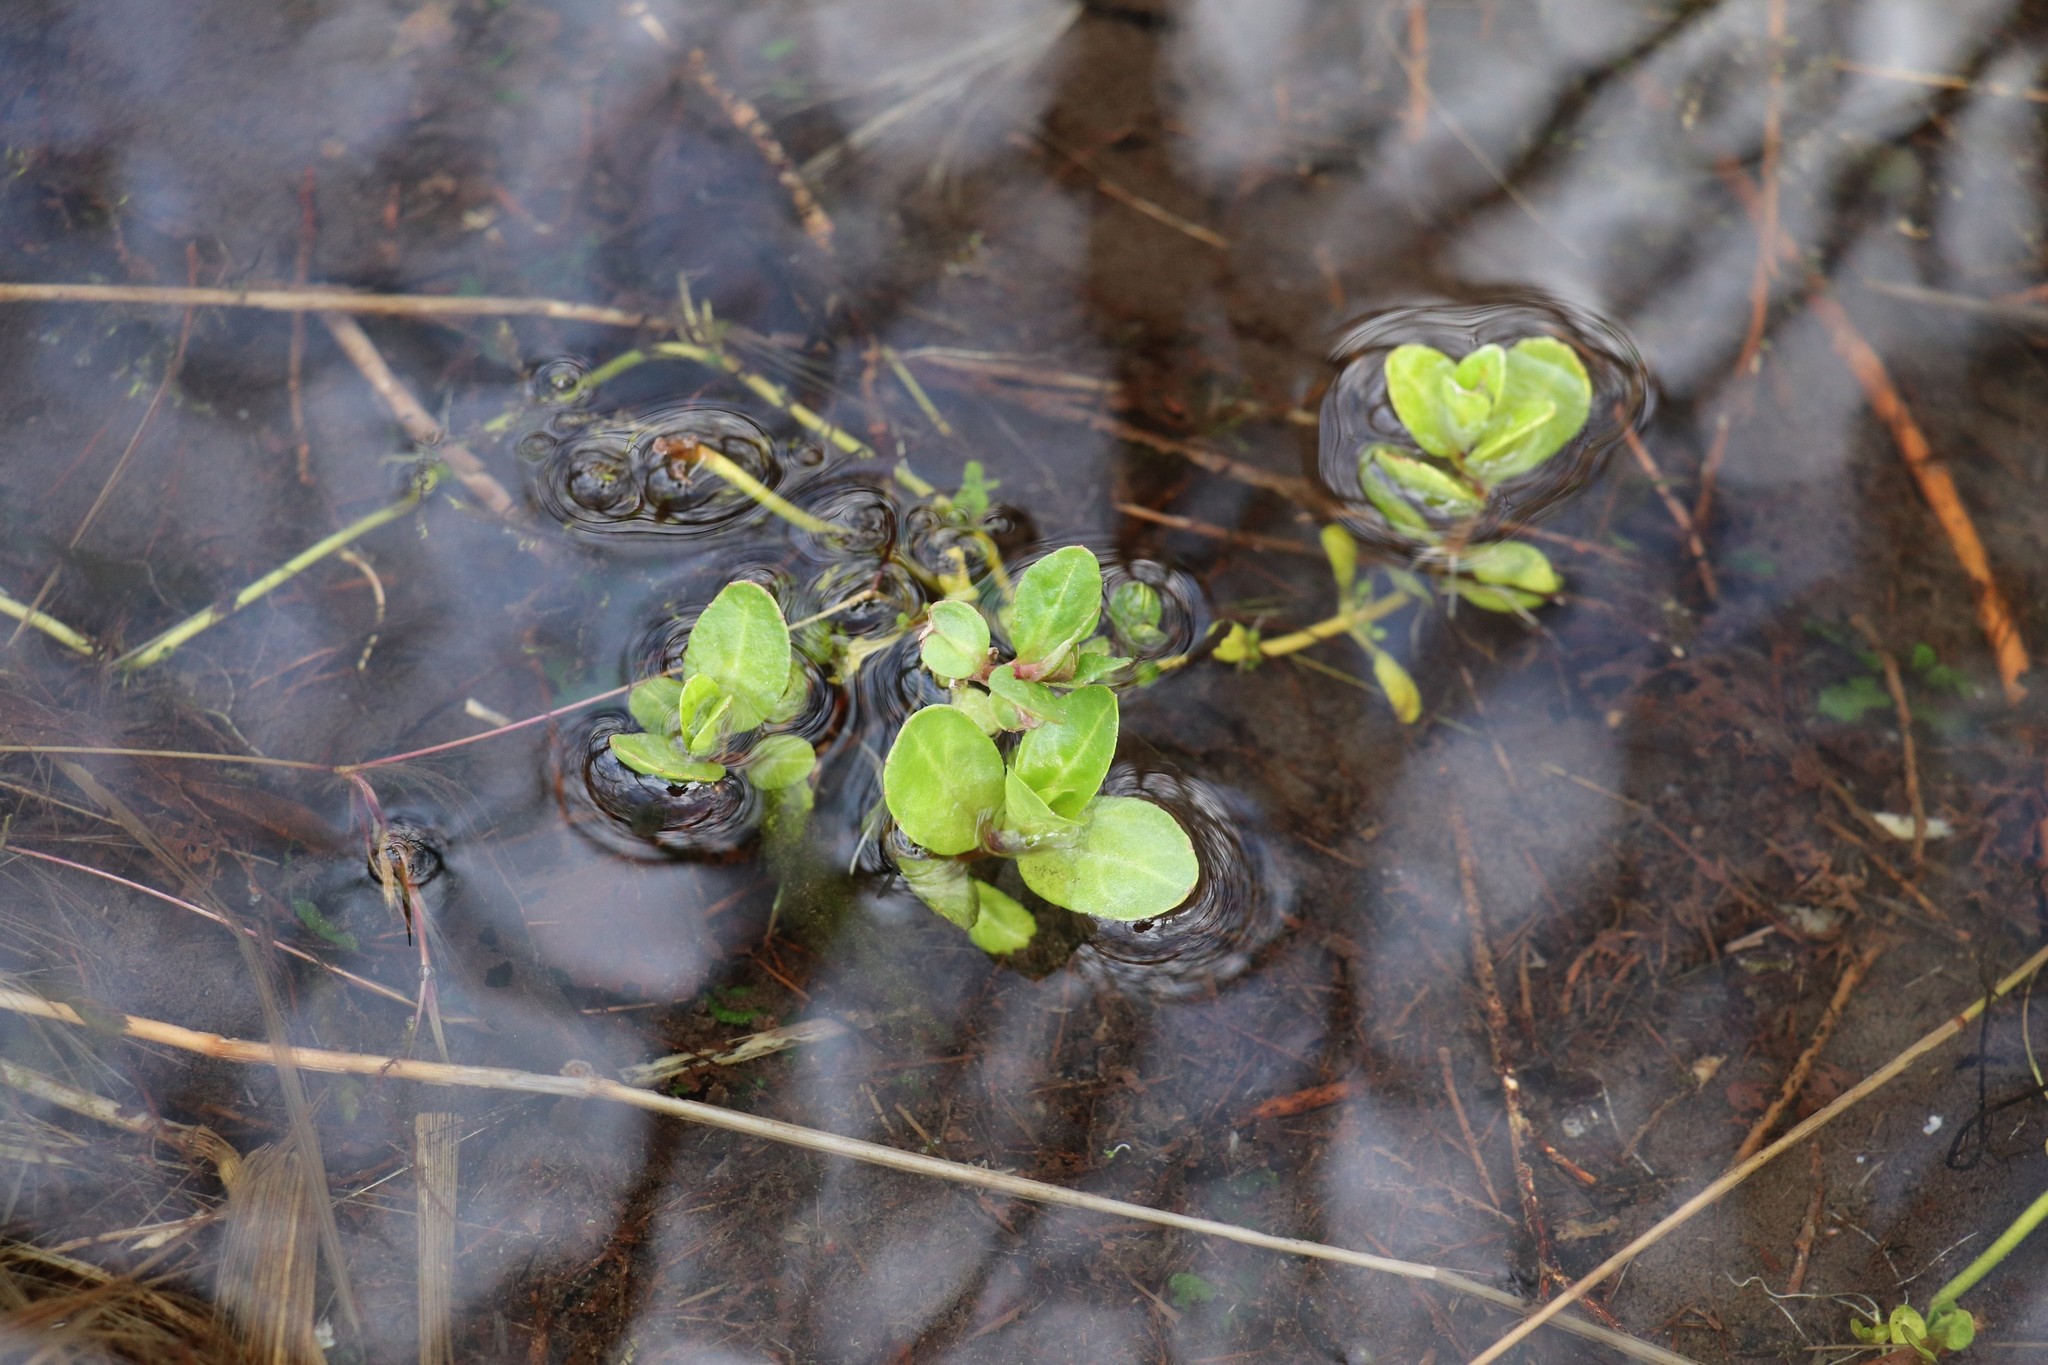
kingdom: Plantae
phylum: Tracheophyta
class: Magnoliopsida
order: Lamiales
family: Plantaginaceae
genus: Veronica
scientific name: Veronica beccabunga
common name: Brooklime
